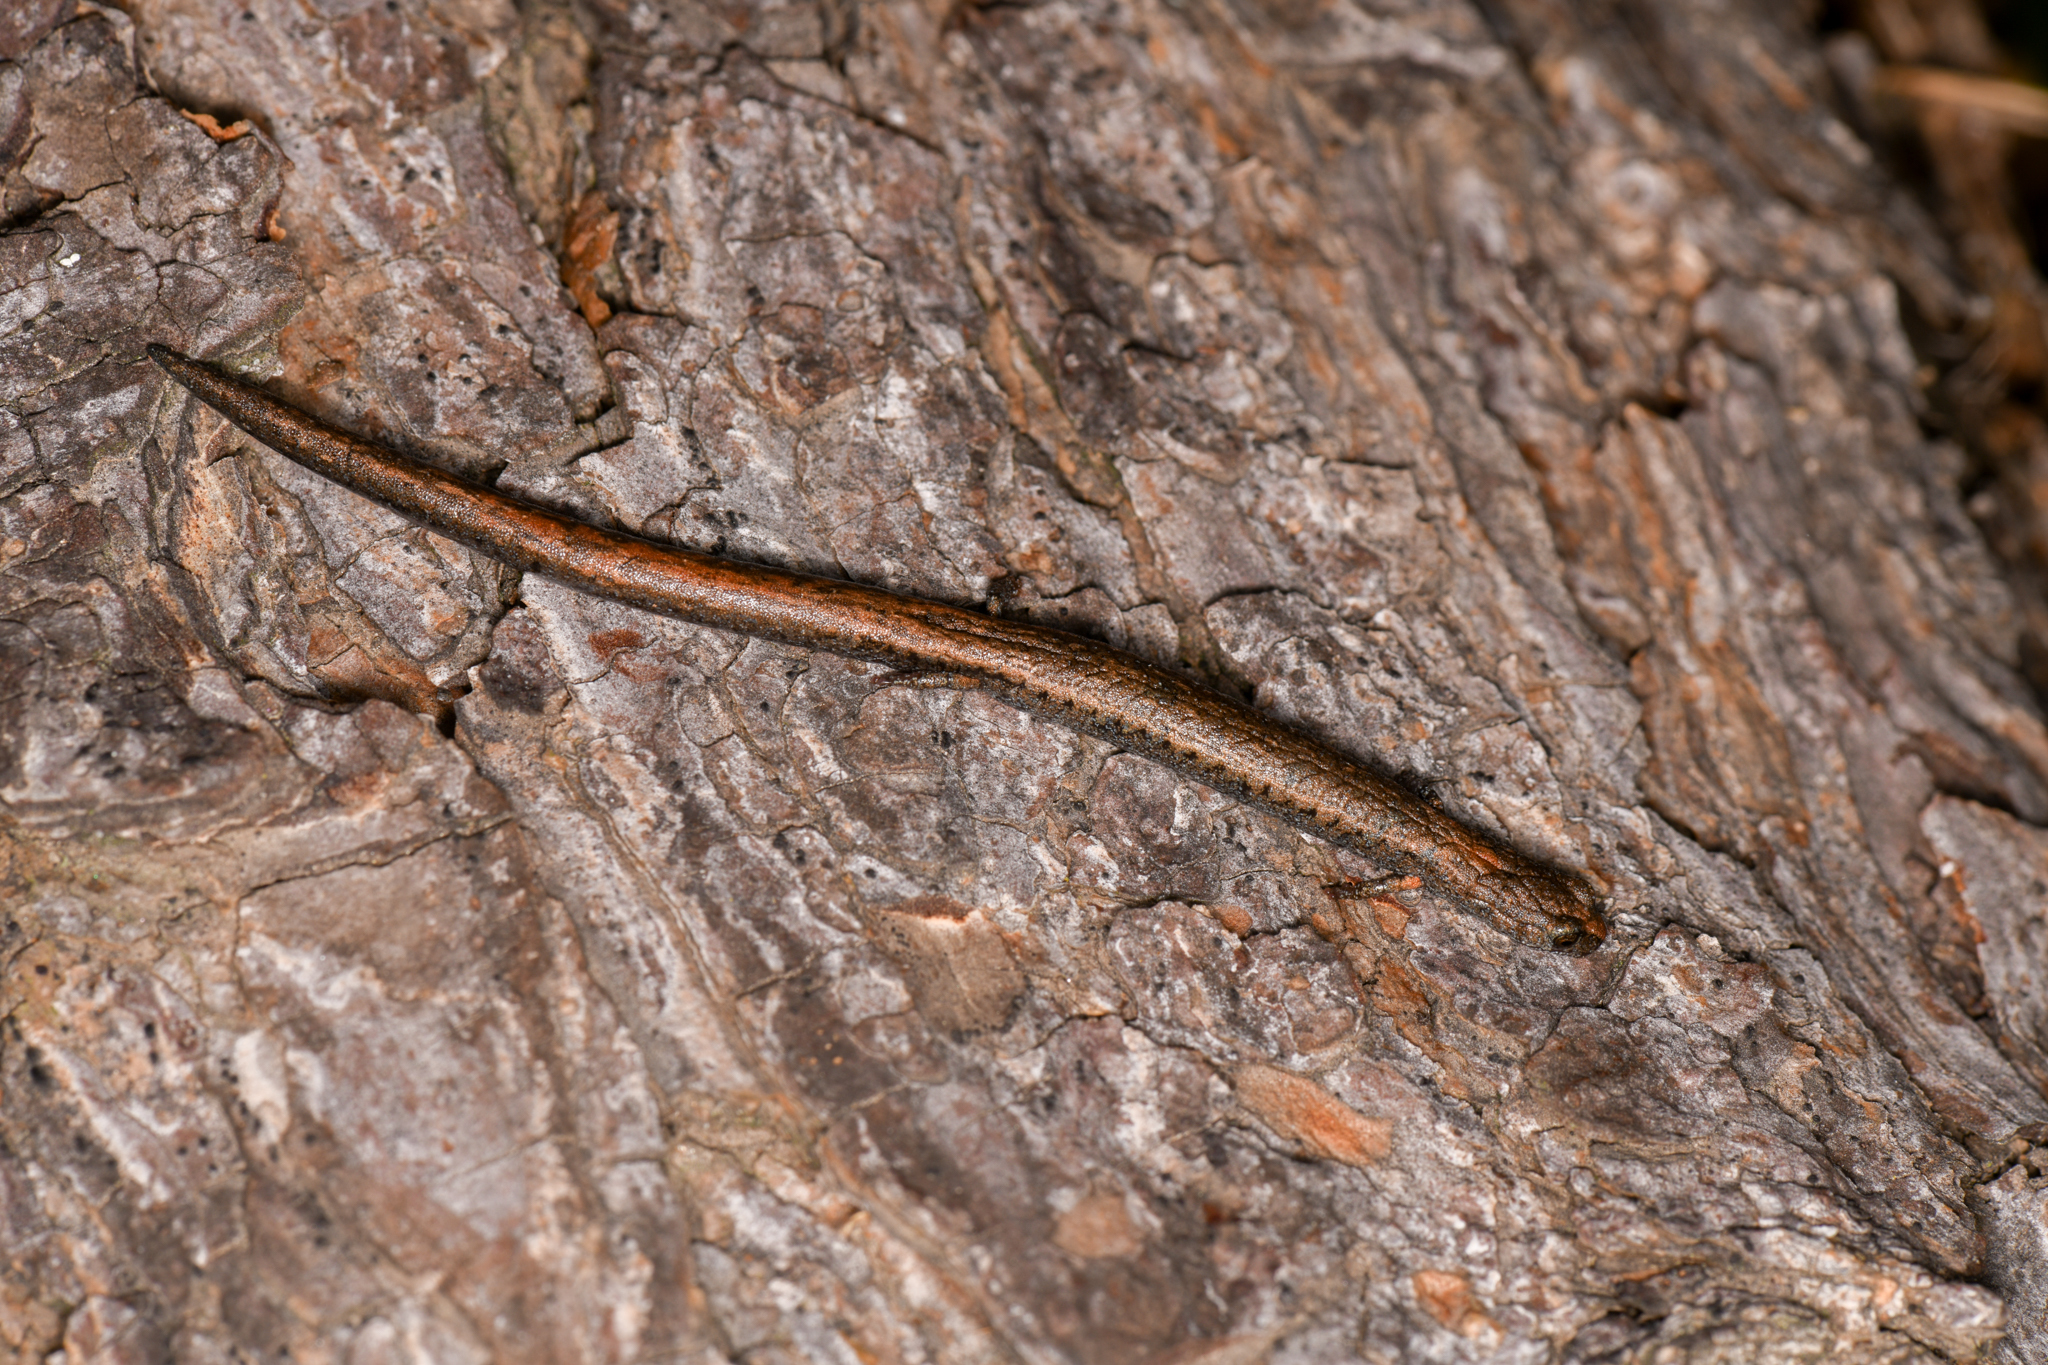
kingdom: Animalia
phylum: Chordata
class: Amphibia
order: Caudata
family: Plethodontidae
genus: Batrachoseps
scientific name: Batrachoseps gregarius
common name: Gregarious slender salamander
